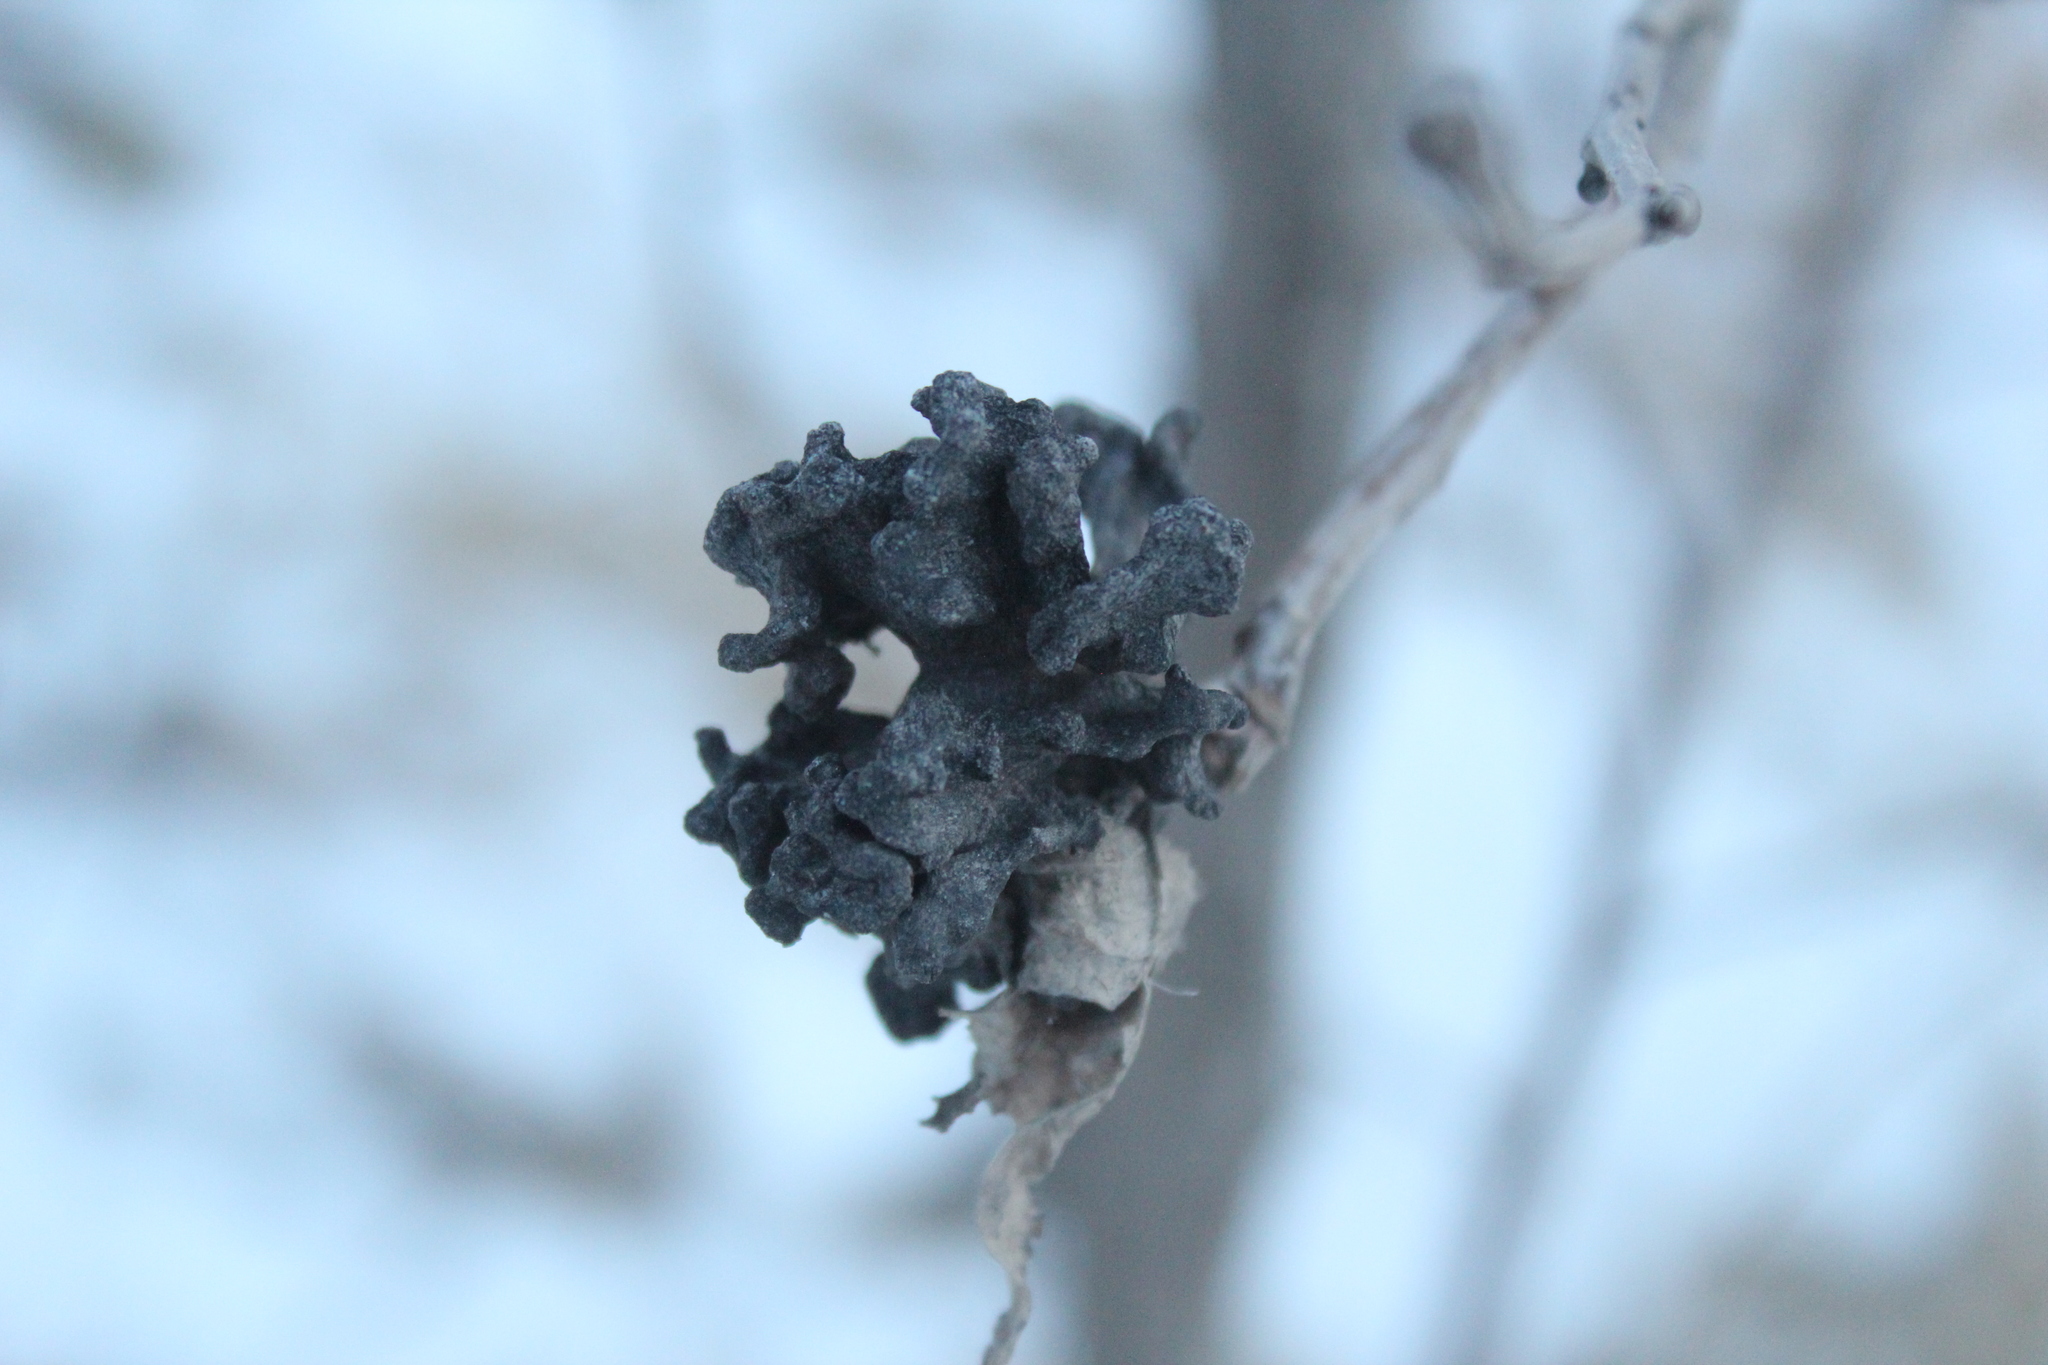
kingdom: Animalia
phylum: Arthropoda
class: Insecta
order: Hemiptera
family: Aphididae
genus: Mordwilkoja
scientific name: Mordwilkoja vagabunda
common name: Poplar vagabond aphid
